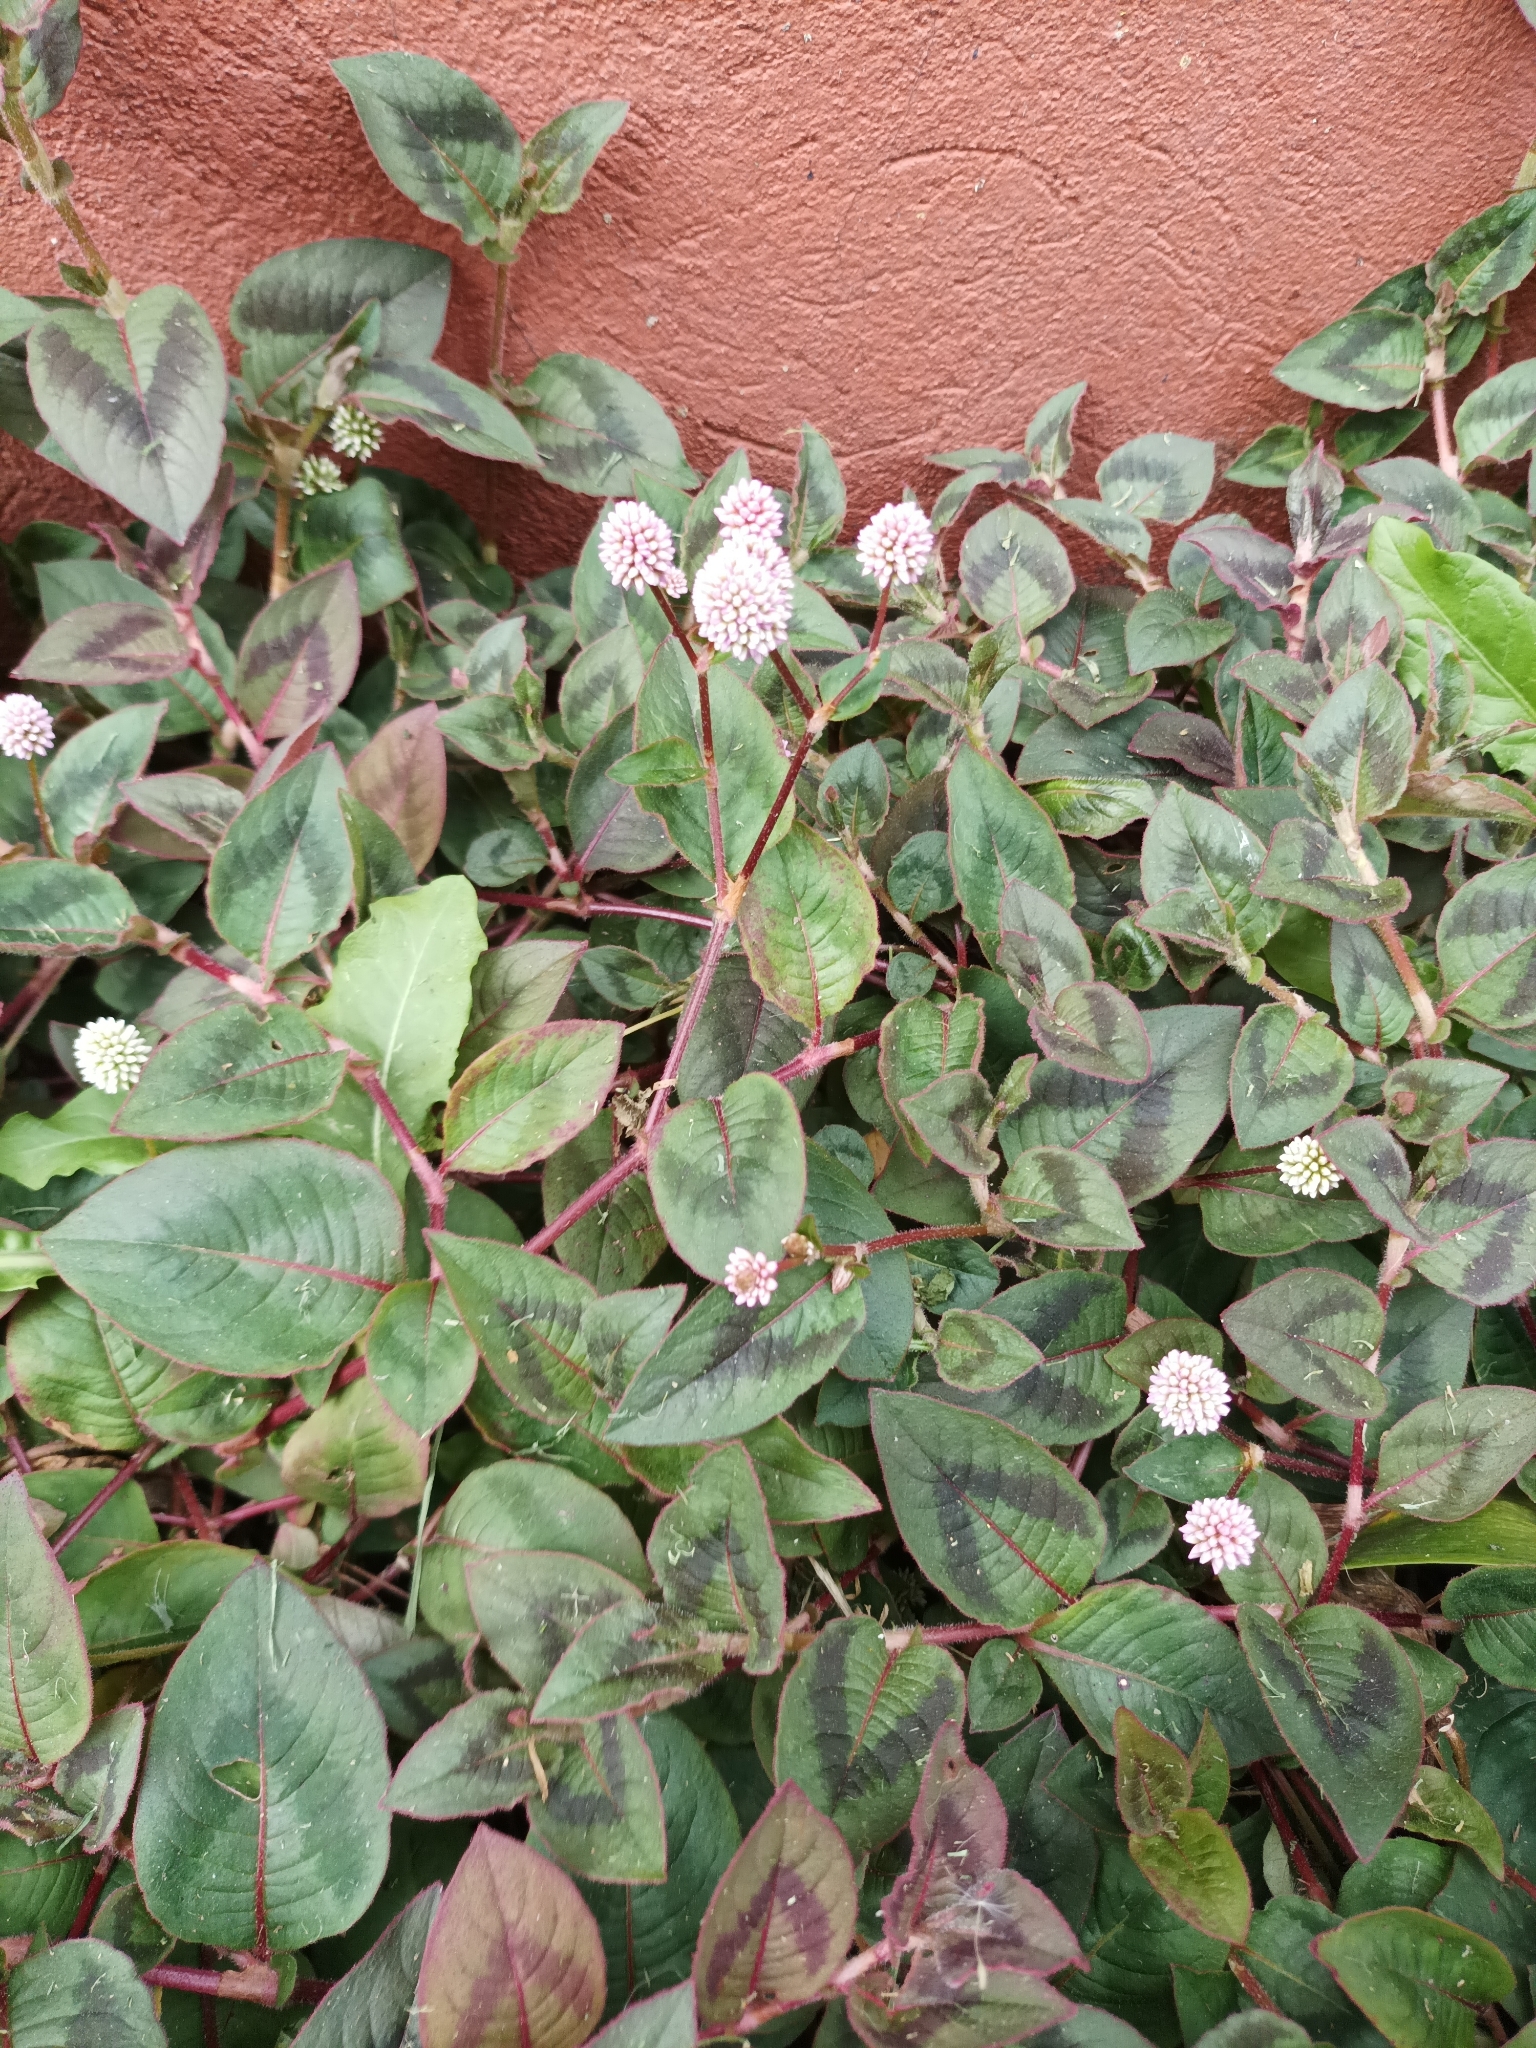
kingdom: Plantae
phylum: Tracheophyta
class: Magnoliopsida
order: Caryophyllales
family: Polygonaceae
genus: Persicaria
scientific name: Persicaria capitata
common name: Pinkhead smartweed
